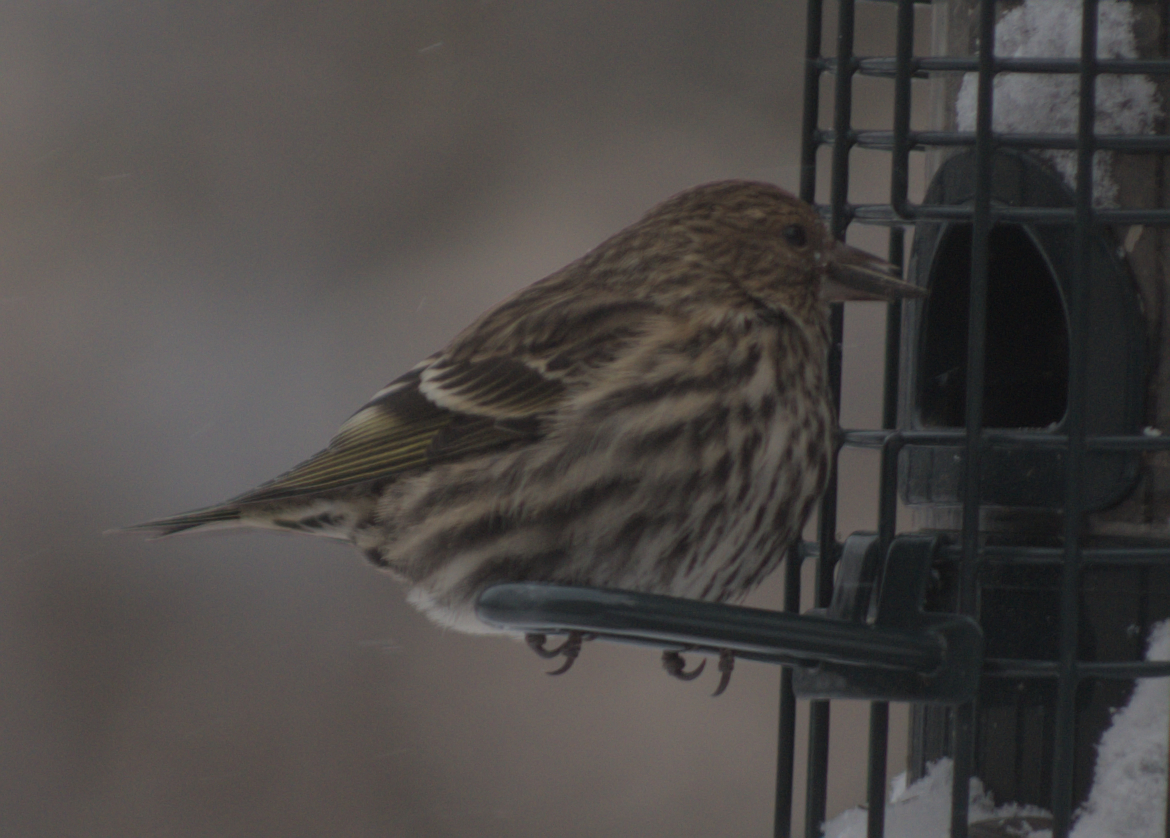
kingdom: Animalia
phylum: Chordata
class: Aves
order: Passeriformes
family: Fringillidae
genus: Spinus
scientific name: Spinus pinus
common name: Pine siskin
